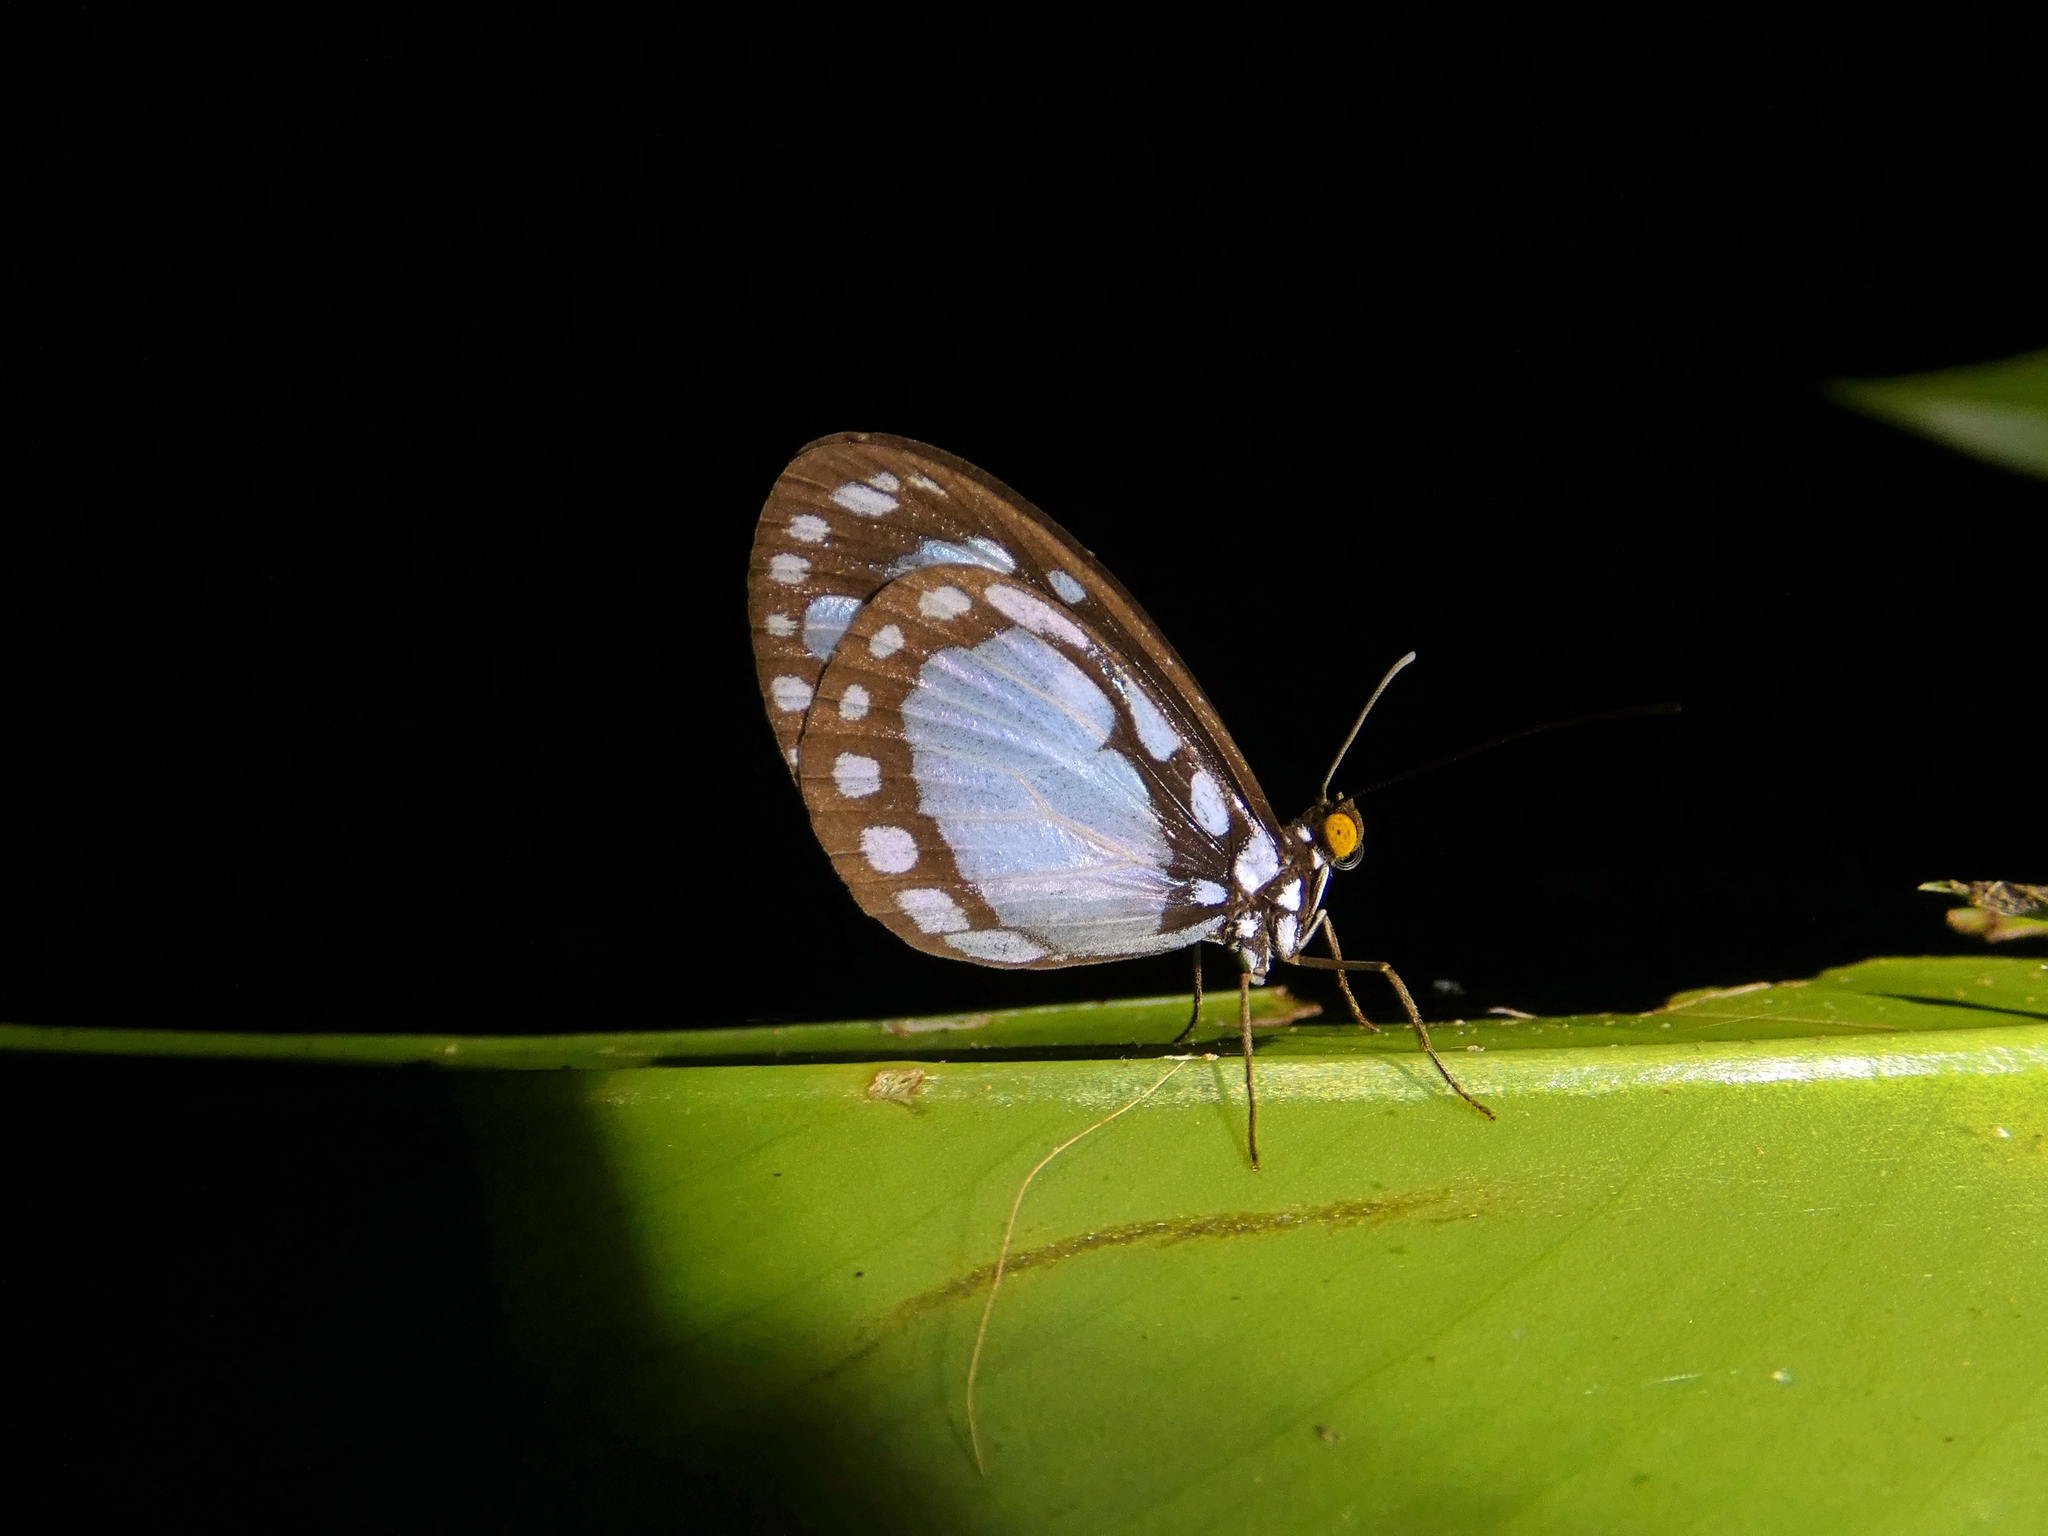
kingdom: Animalia
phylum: Arthropoda
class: Insecta
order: Lepidoptera
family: Nymphalidae
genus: Tellervo
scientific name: Tellervo zoilus
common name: Hamadryad
